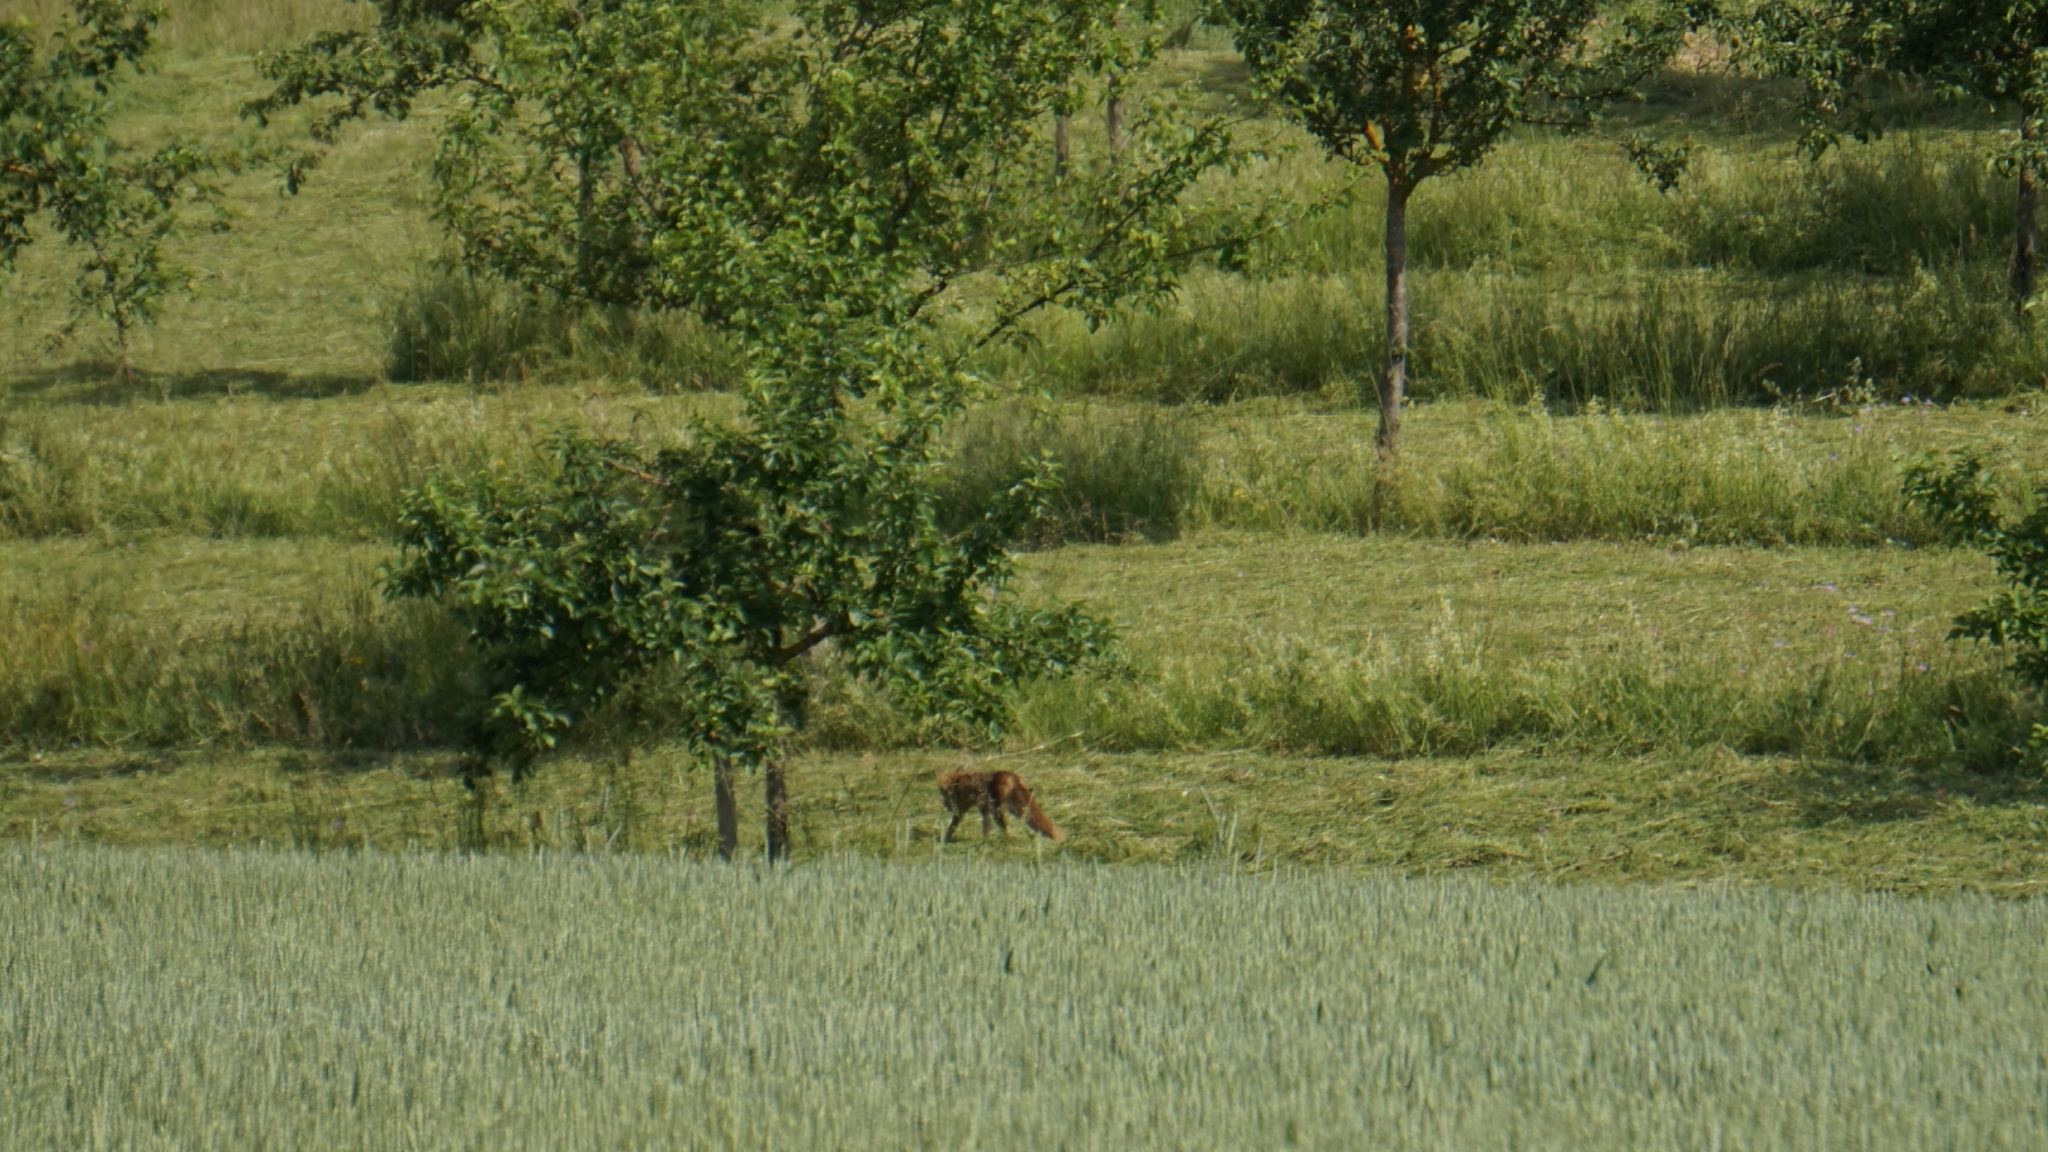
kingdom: Animalia
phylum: Chordata
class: Mammalia
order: Carnivora
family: Canidae
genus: Vulpes
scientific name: Vulpes vulpes
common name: Red fox
